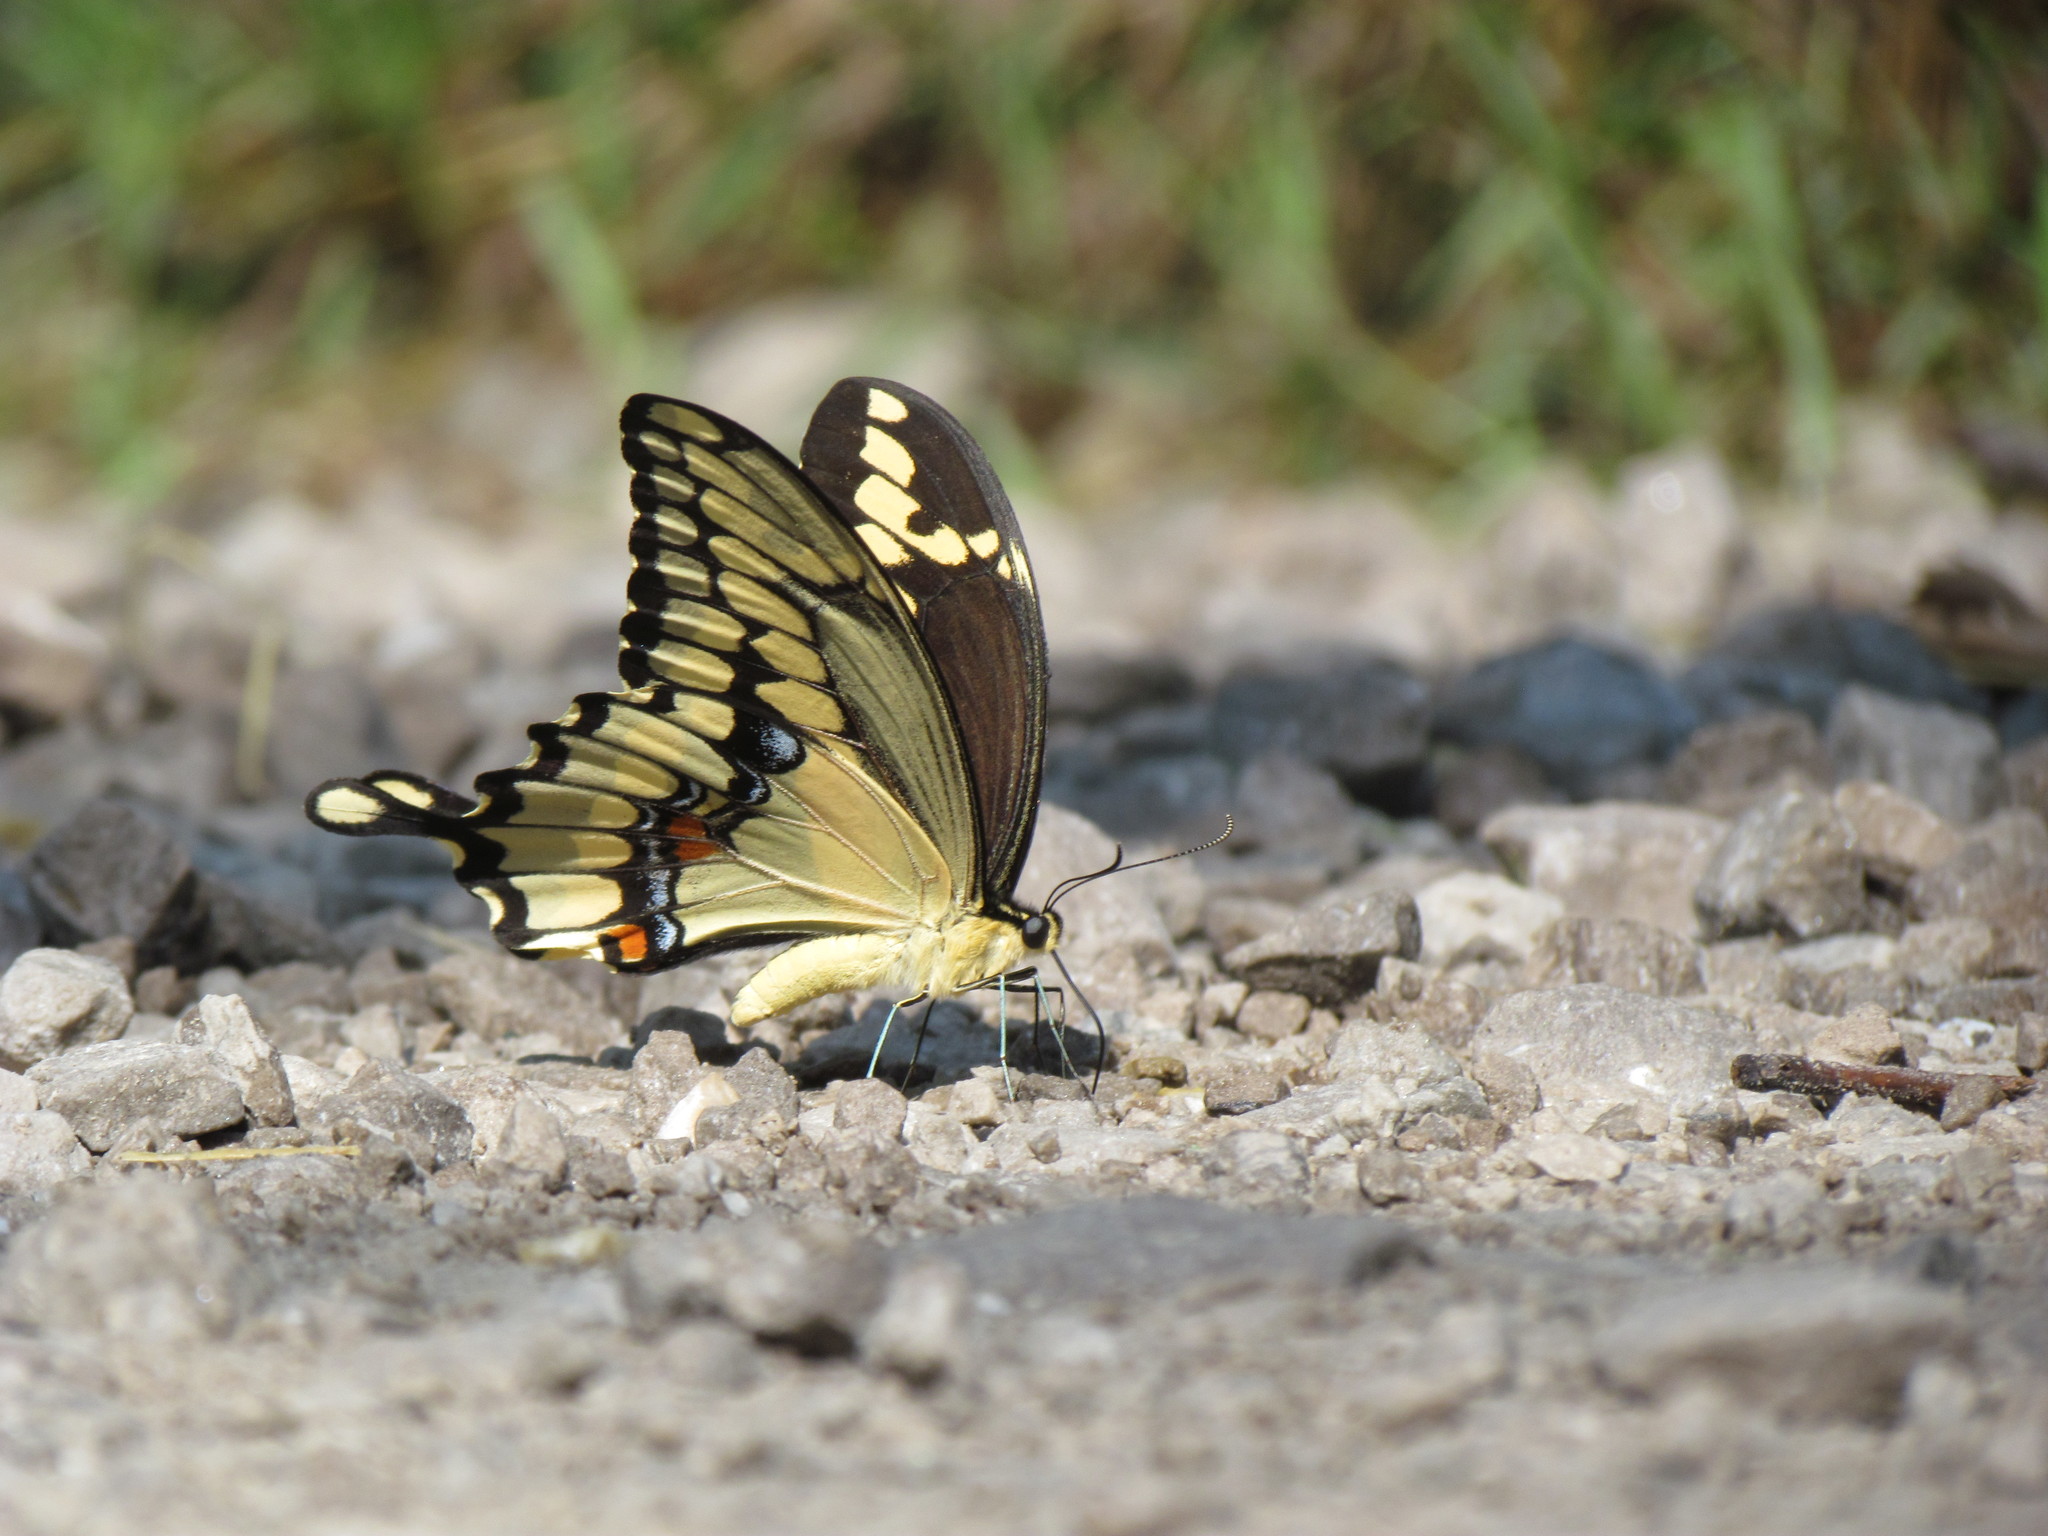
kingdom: Animalia
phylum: Arthropoda
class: Insecta
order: Lepidoptera
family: Papilionidae
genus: Papilio
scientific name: Papilio cresphontes
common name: Giant swallowtail
